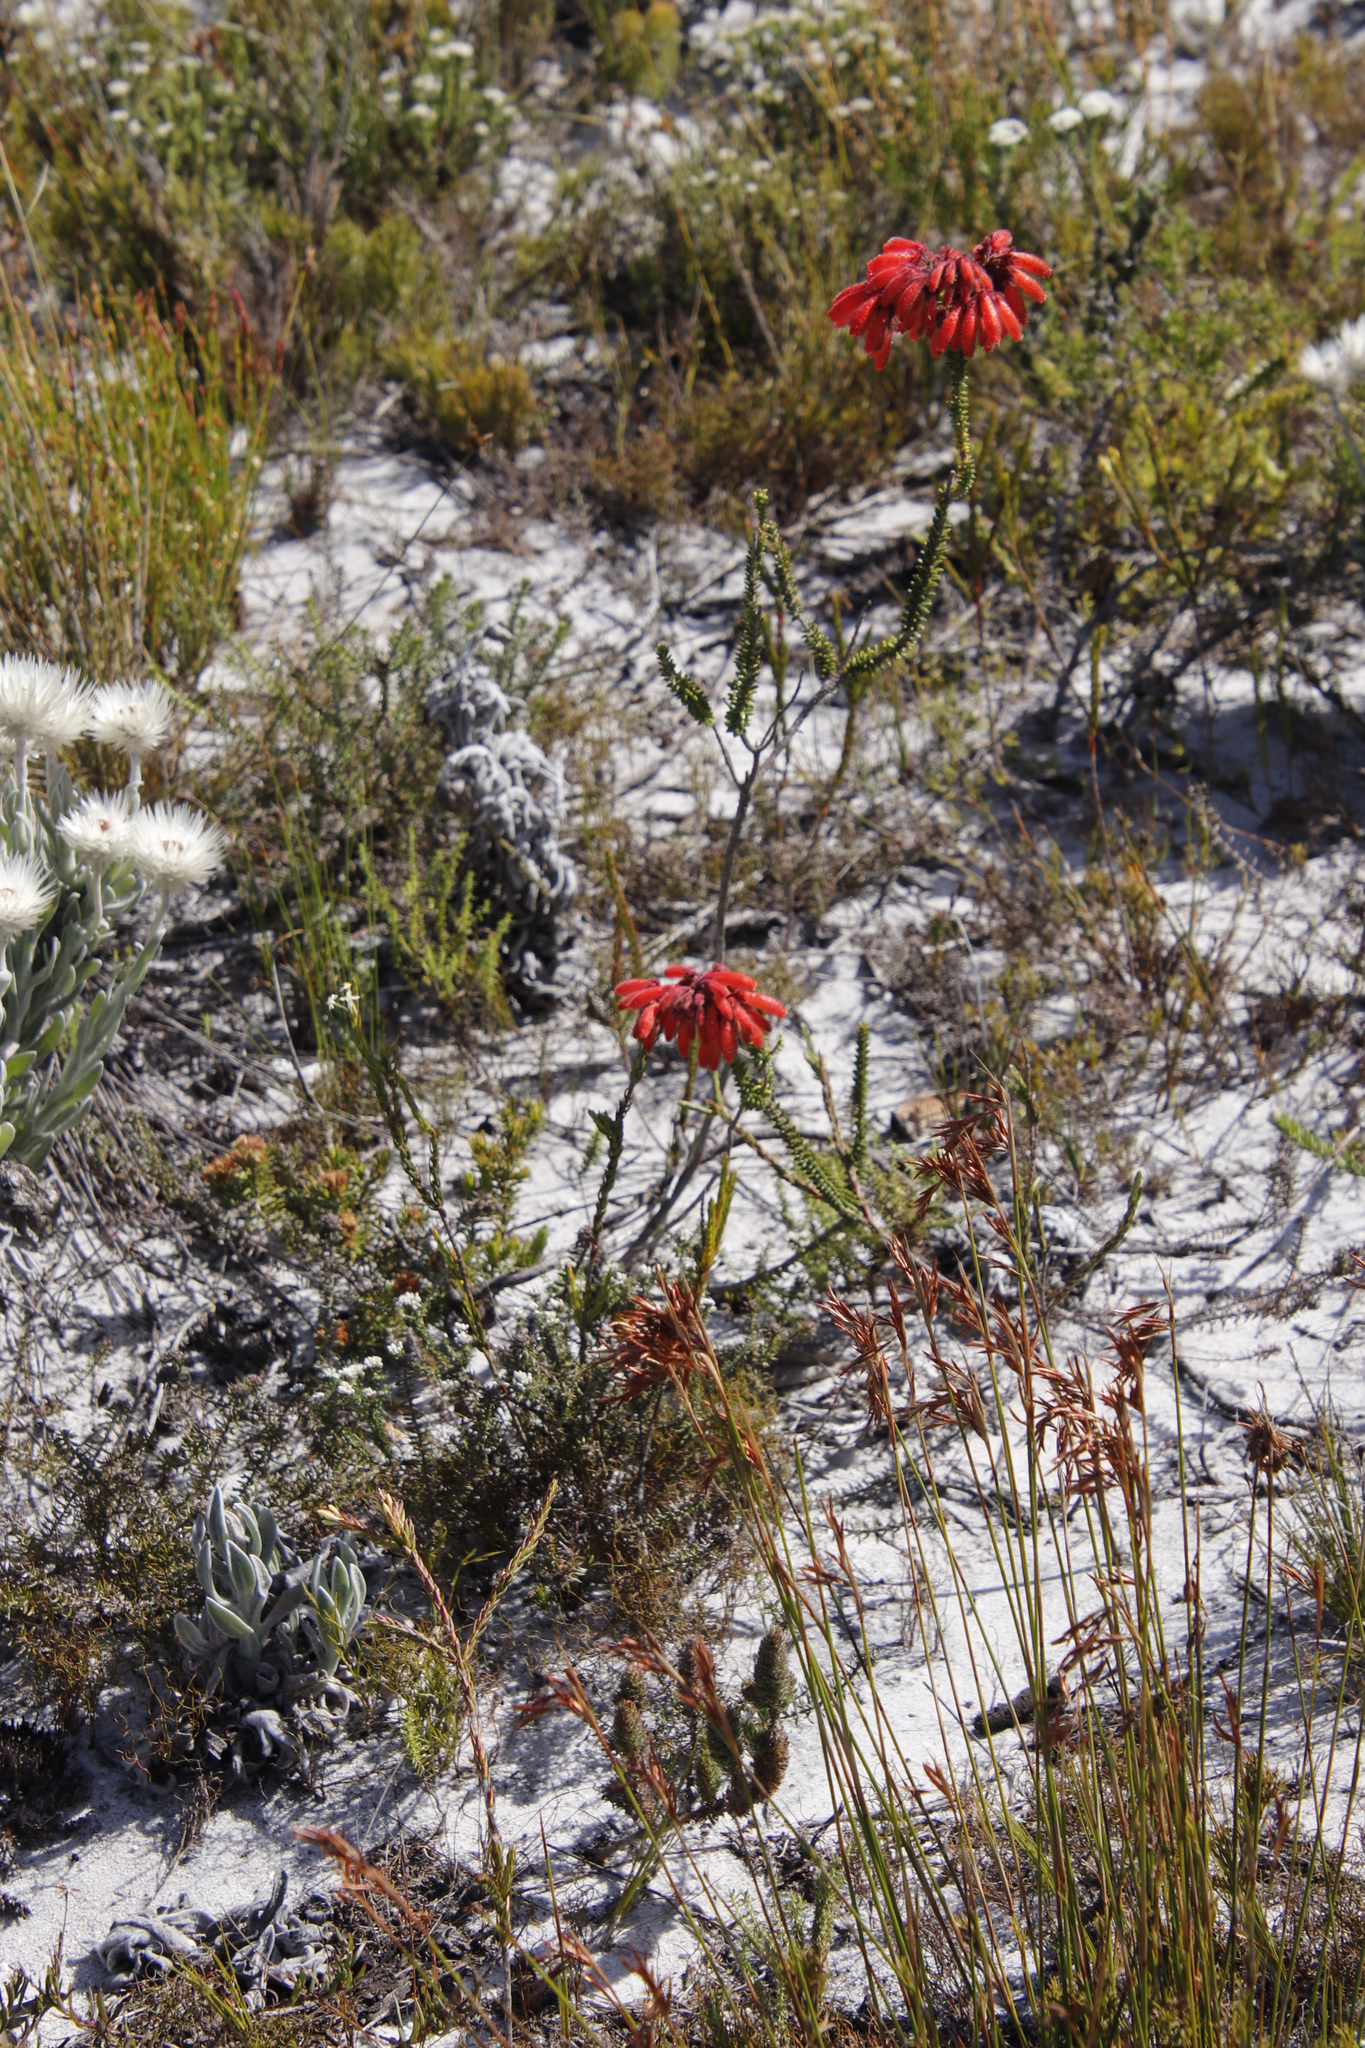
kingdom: Plantae
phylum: Tracheophyta
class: Magnoliopsida
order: Ericales
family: Ericaceae
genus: Erica
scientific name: Erica cerinthoides
